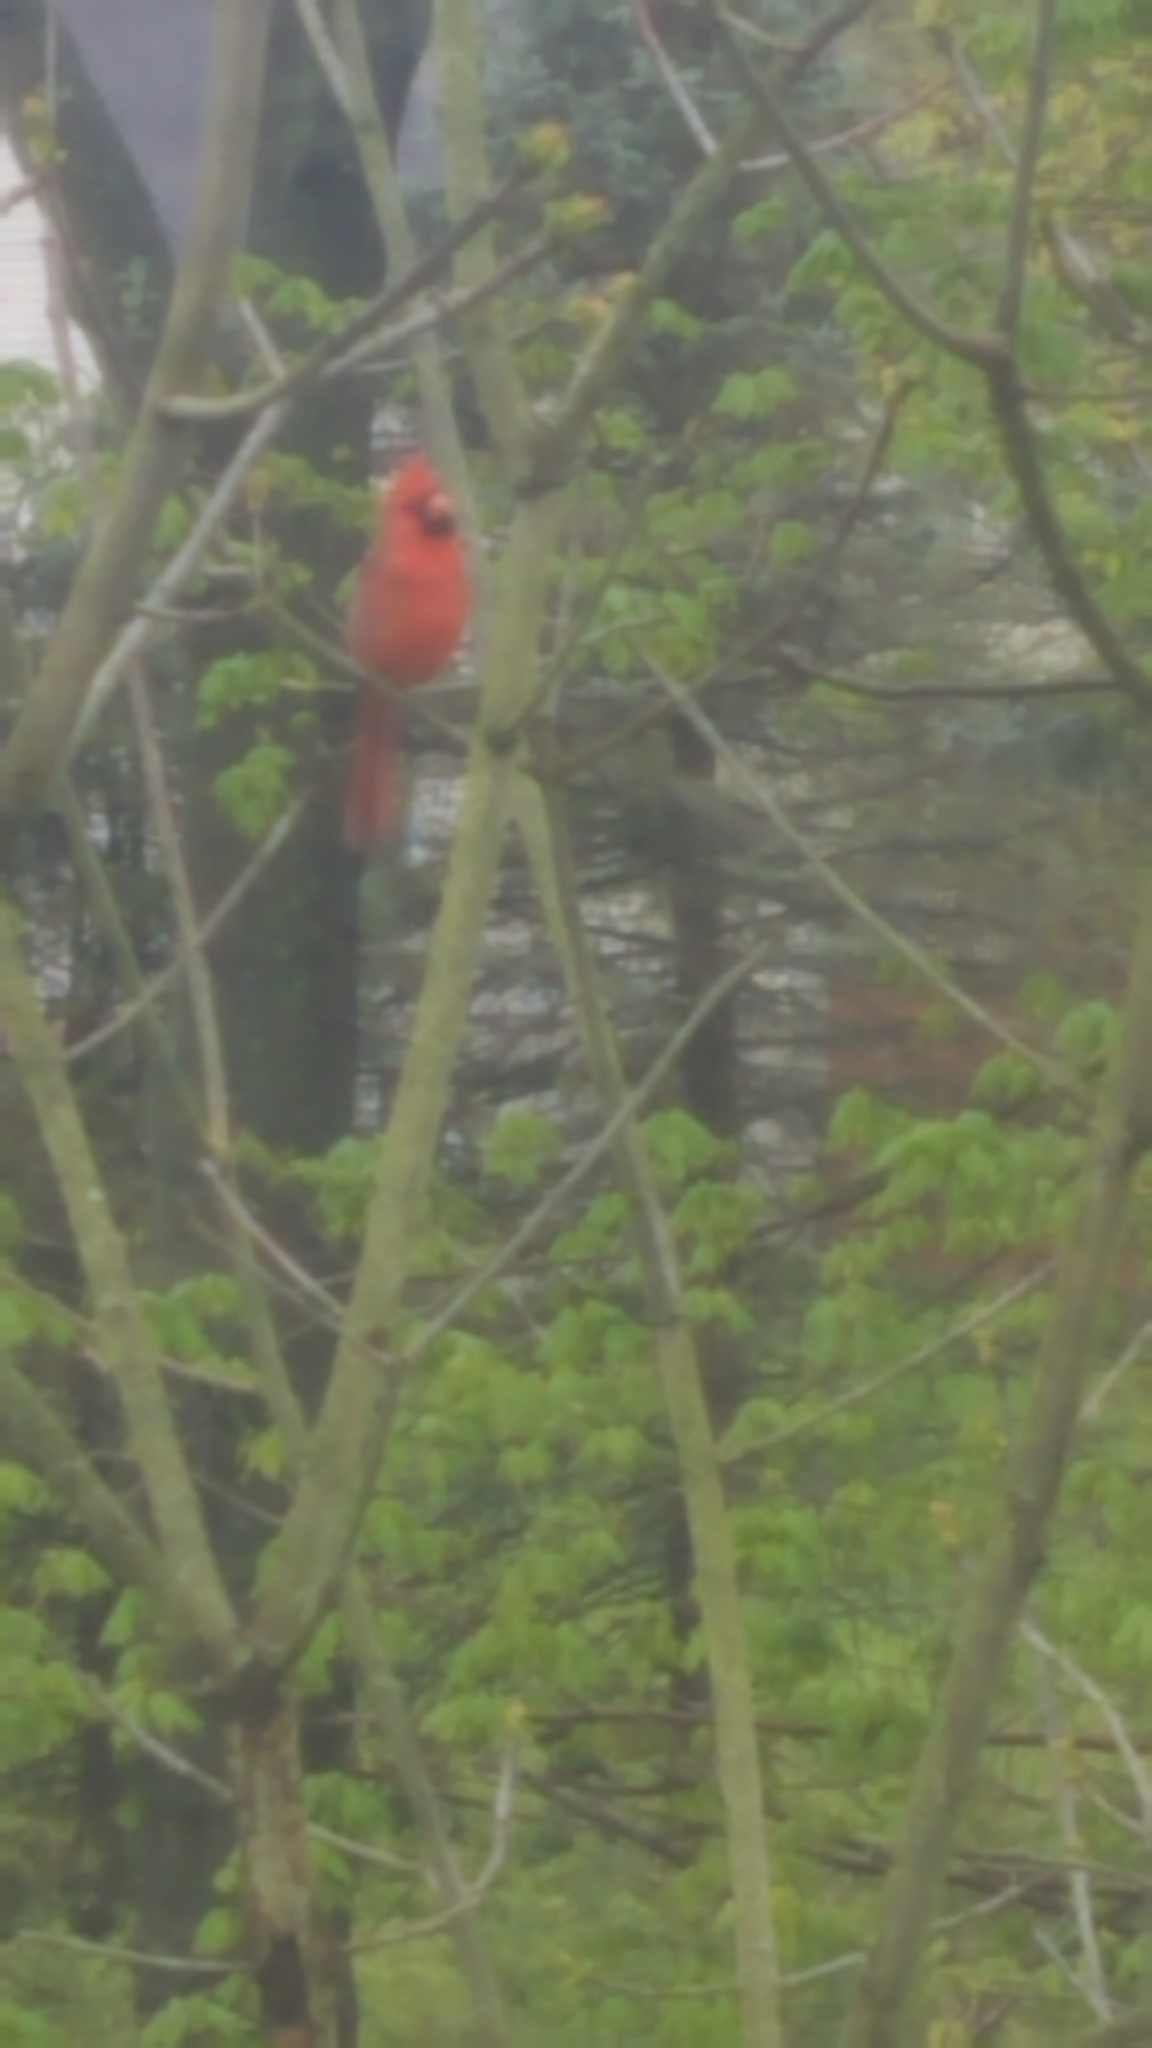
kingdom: Animalia
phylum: Chordata
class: Aves
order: Passeriformes
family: Cardinalidae
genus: Cardinalis
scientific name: Cardinalis cardinalis
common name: Northern cardinal
